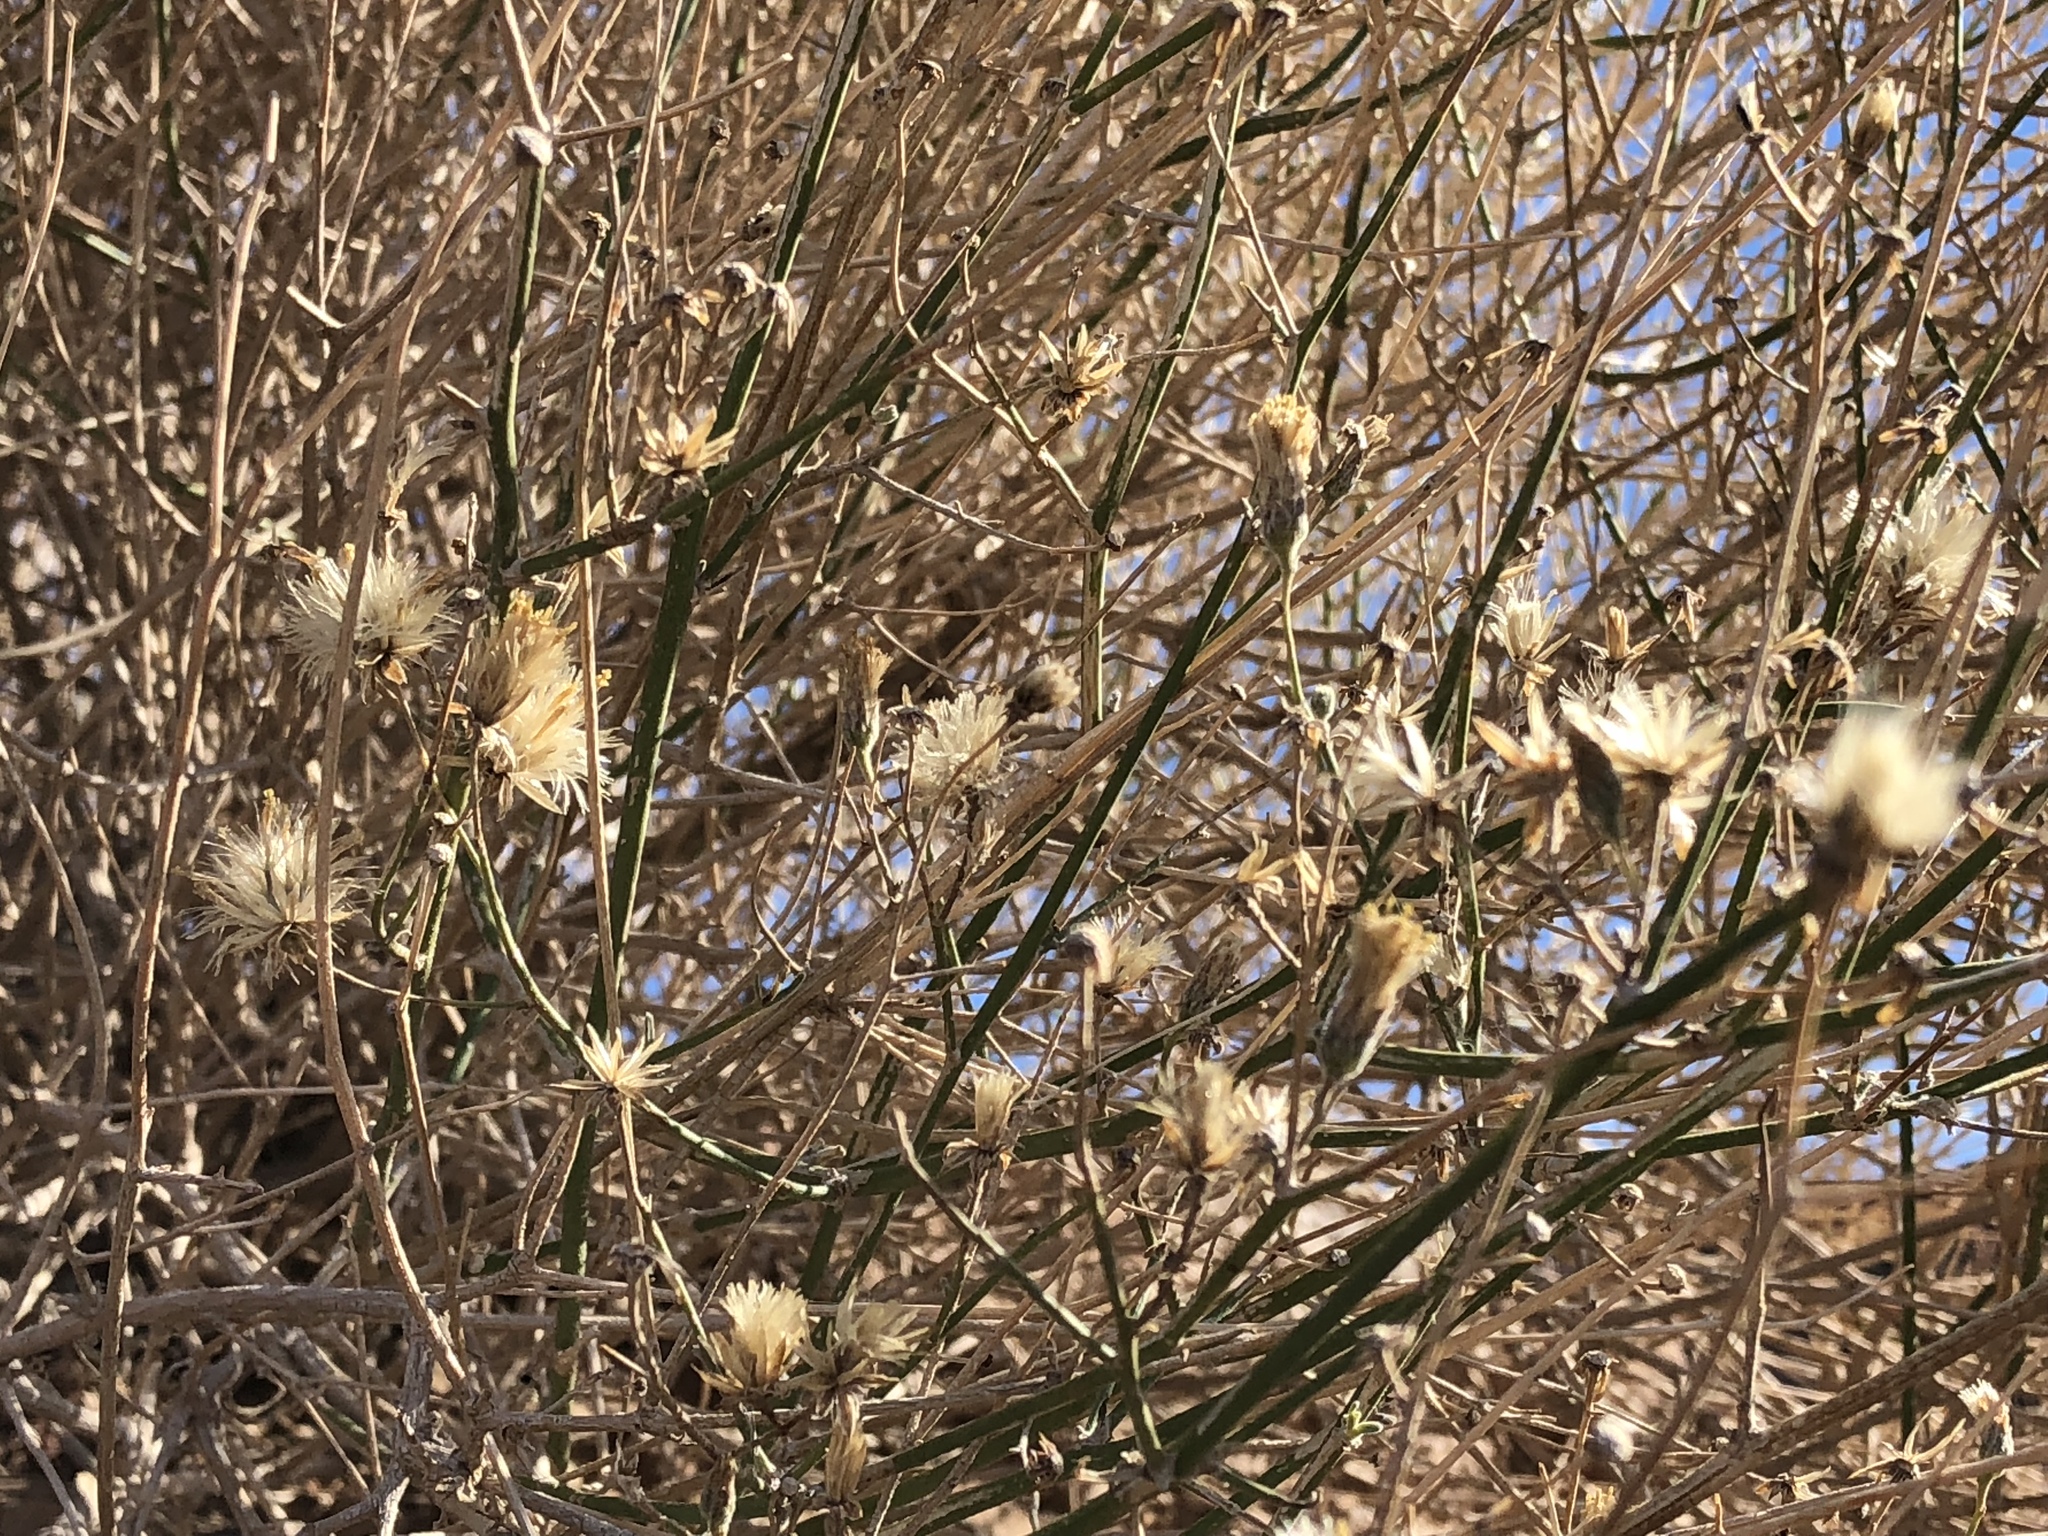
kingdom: Plantae
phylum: Tracheophyta
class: Magnoliopsida
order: Asterales
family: Asteraceae
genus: Bebbia
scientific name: Bebbia juncea
